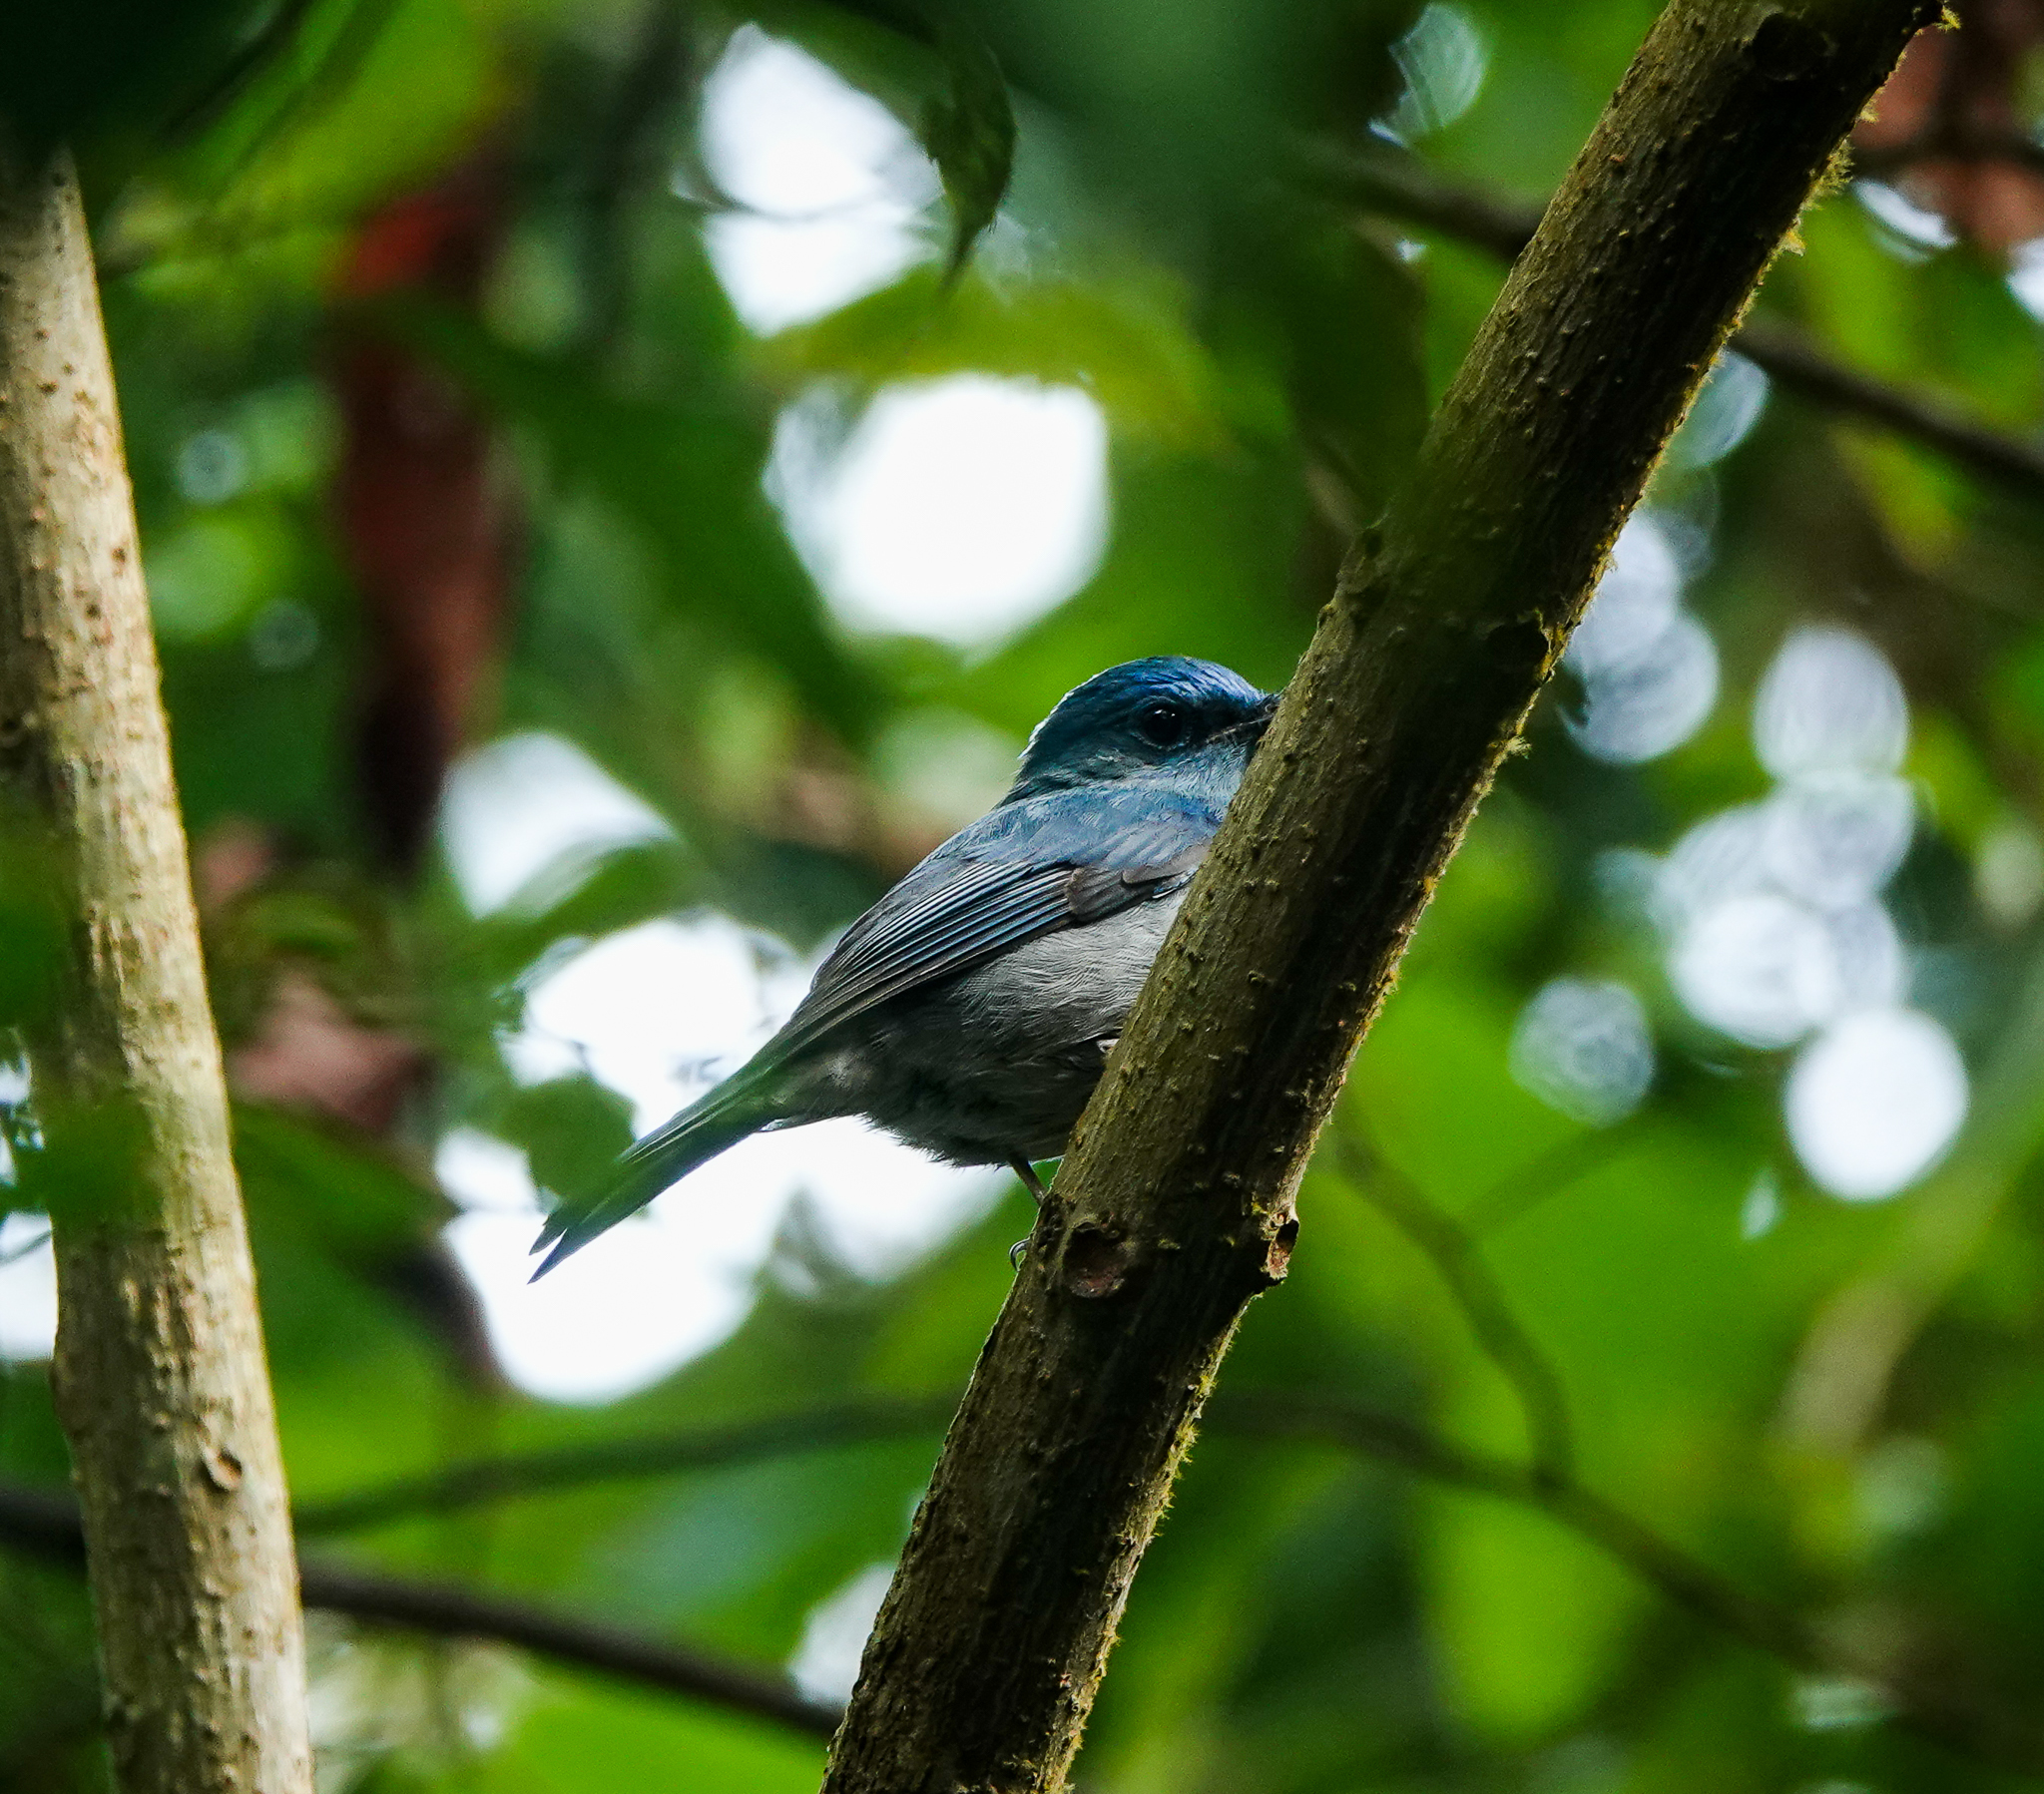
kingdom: Animalia
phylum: Chordata
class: Aves
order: Passeriformes
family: Muscicapidae
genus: Cyornis
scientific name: Cyornis unicolor
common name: Pale blue flycatcher
